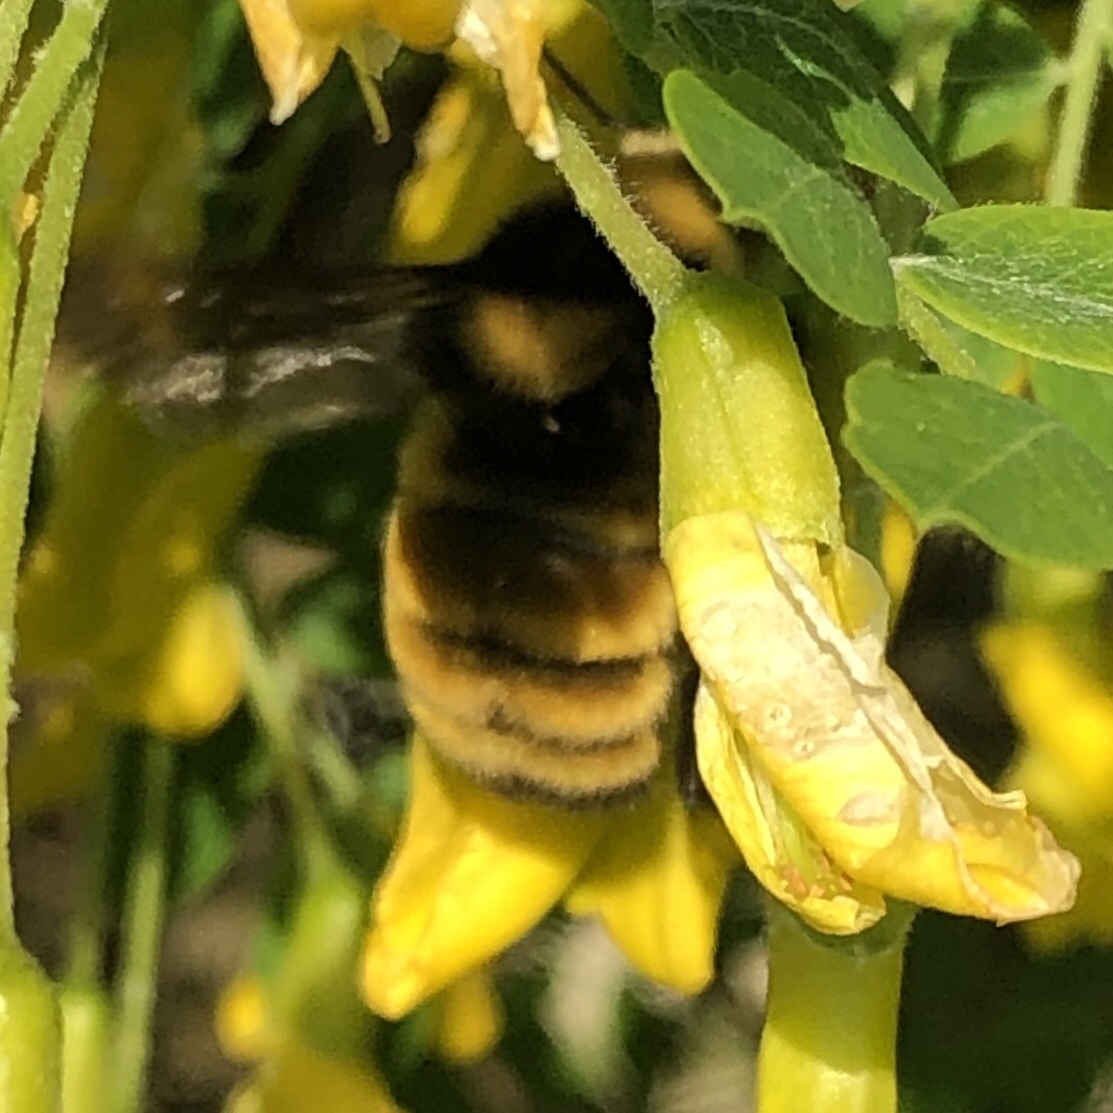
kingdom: Animalia
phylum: Arthropoda
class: Insecta
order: Hymenoptera
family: Apidae
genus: Bombus
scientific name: Bombus fervidus
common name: Yellow bumble bee
